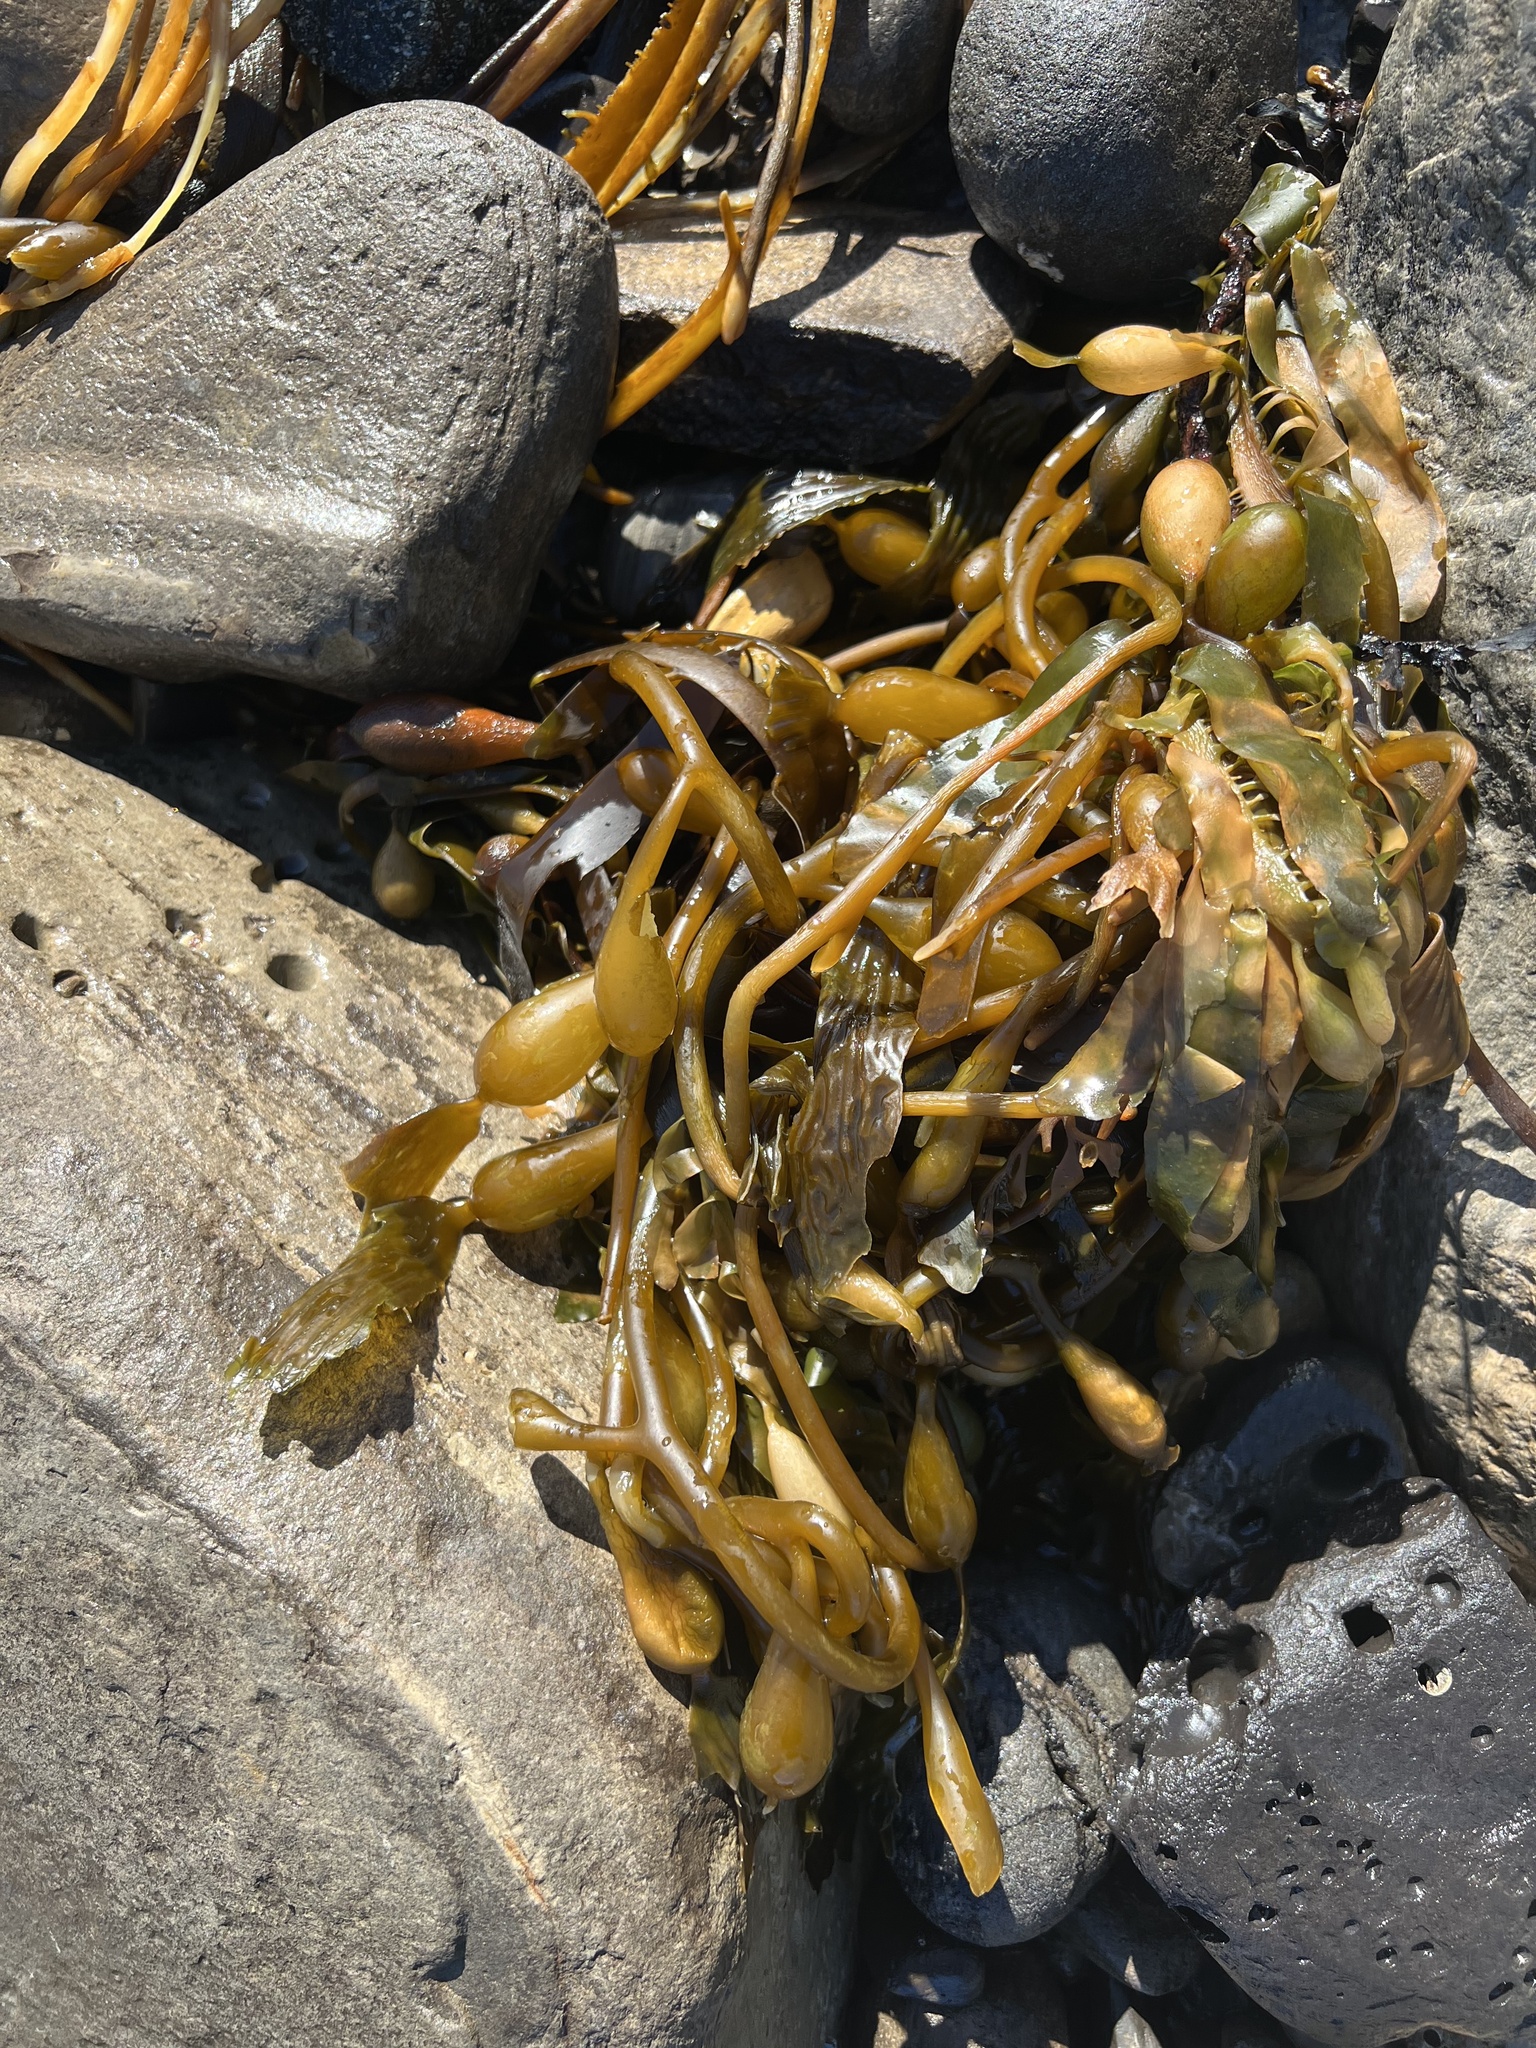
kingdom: Chromista
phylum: Ochrophyta
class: Phaeophyceae
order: Laminariales
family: Laminariaceae
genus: Macrocystis
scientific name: Macrocystis pyrifera
